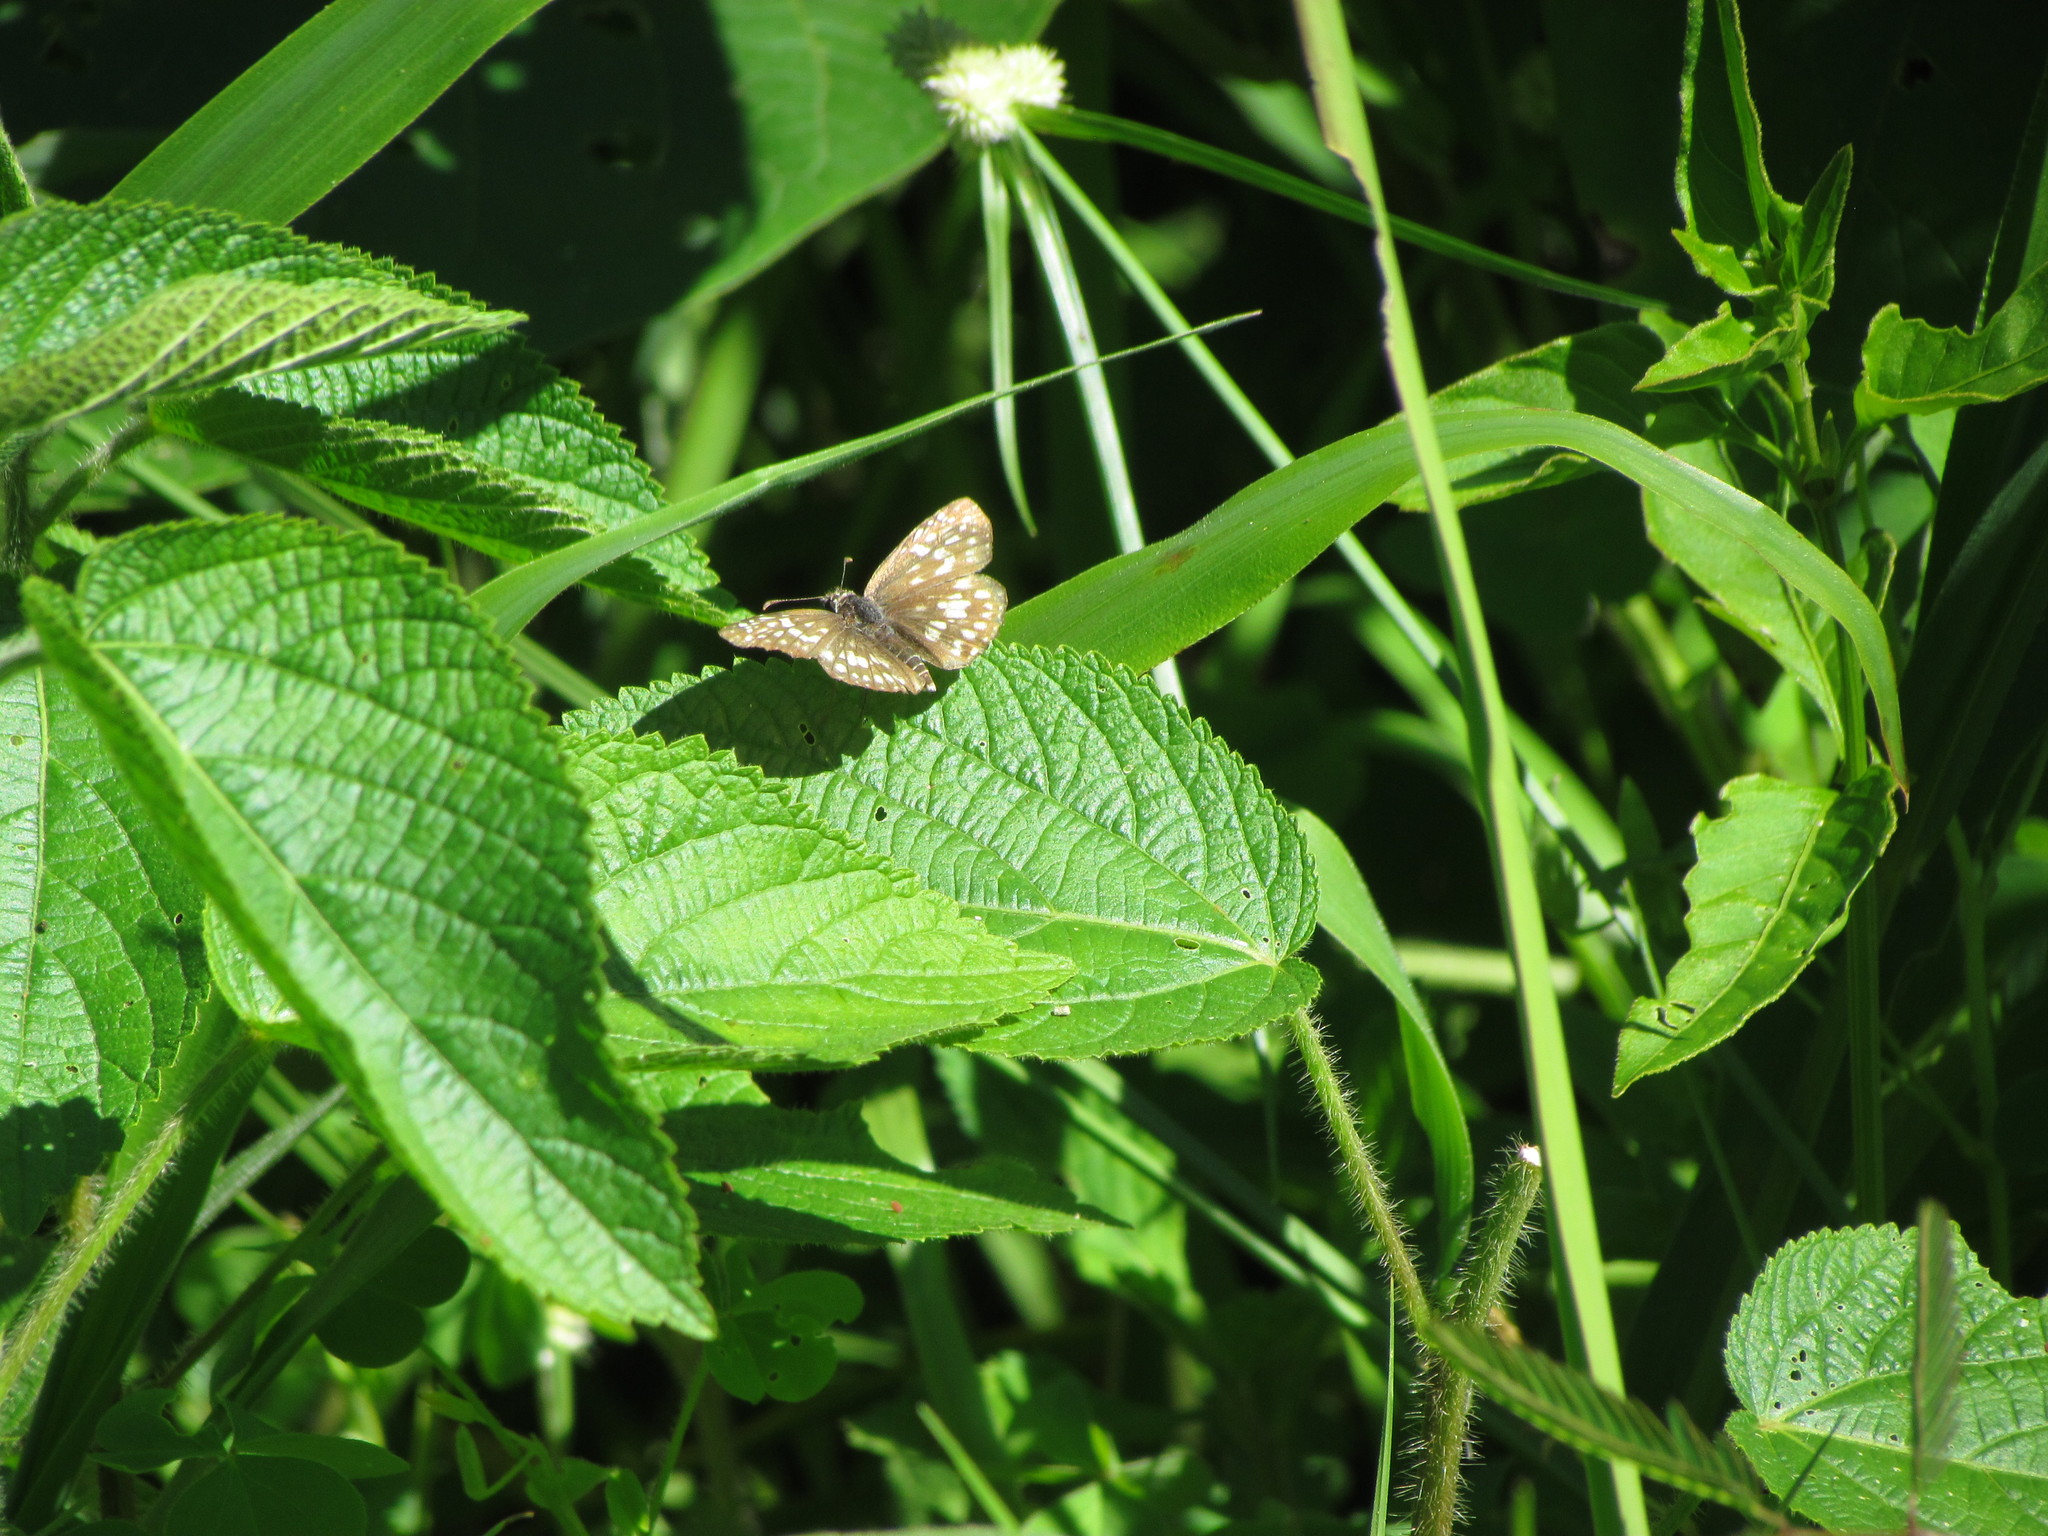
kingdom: Animalia
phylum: Arthropoda
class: Insecta
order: Lepidoptera
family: Hesperiidae
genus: Pyrgus
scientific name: Pyrgus oileus
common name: Tropical checkered-skipper
